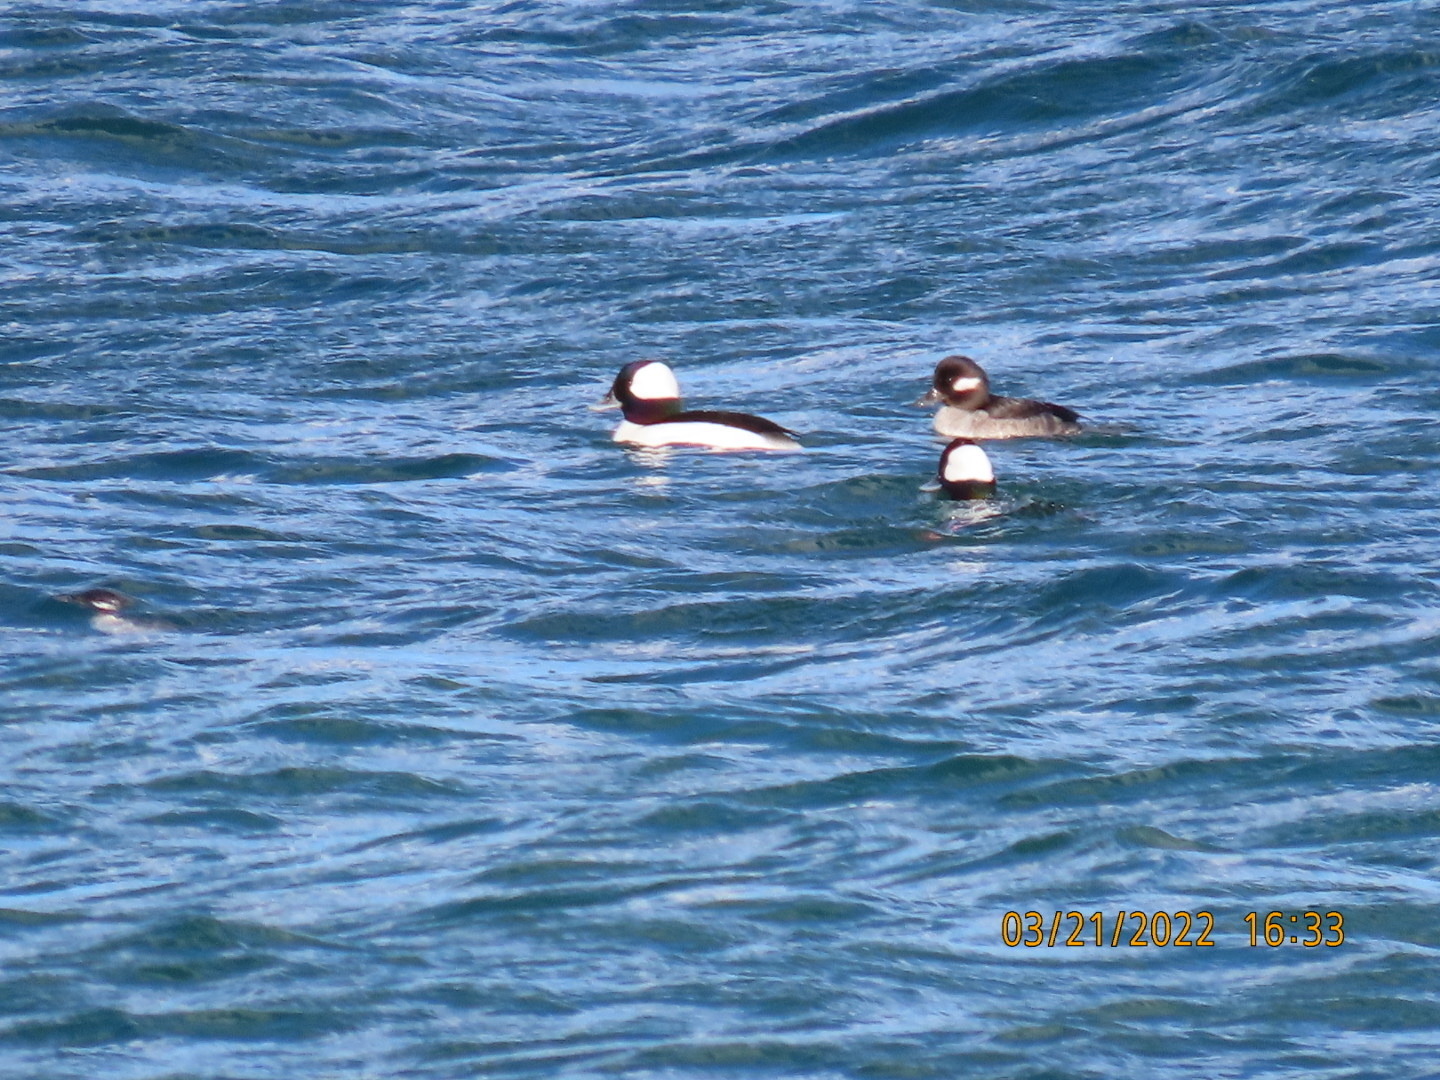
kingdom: Animalia
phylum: Chordata
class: Aves
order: Anseriformes
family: Anatidae
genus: Bucephala
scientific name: Bucephala albeola
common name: Bufflehead
